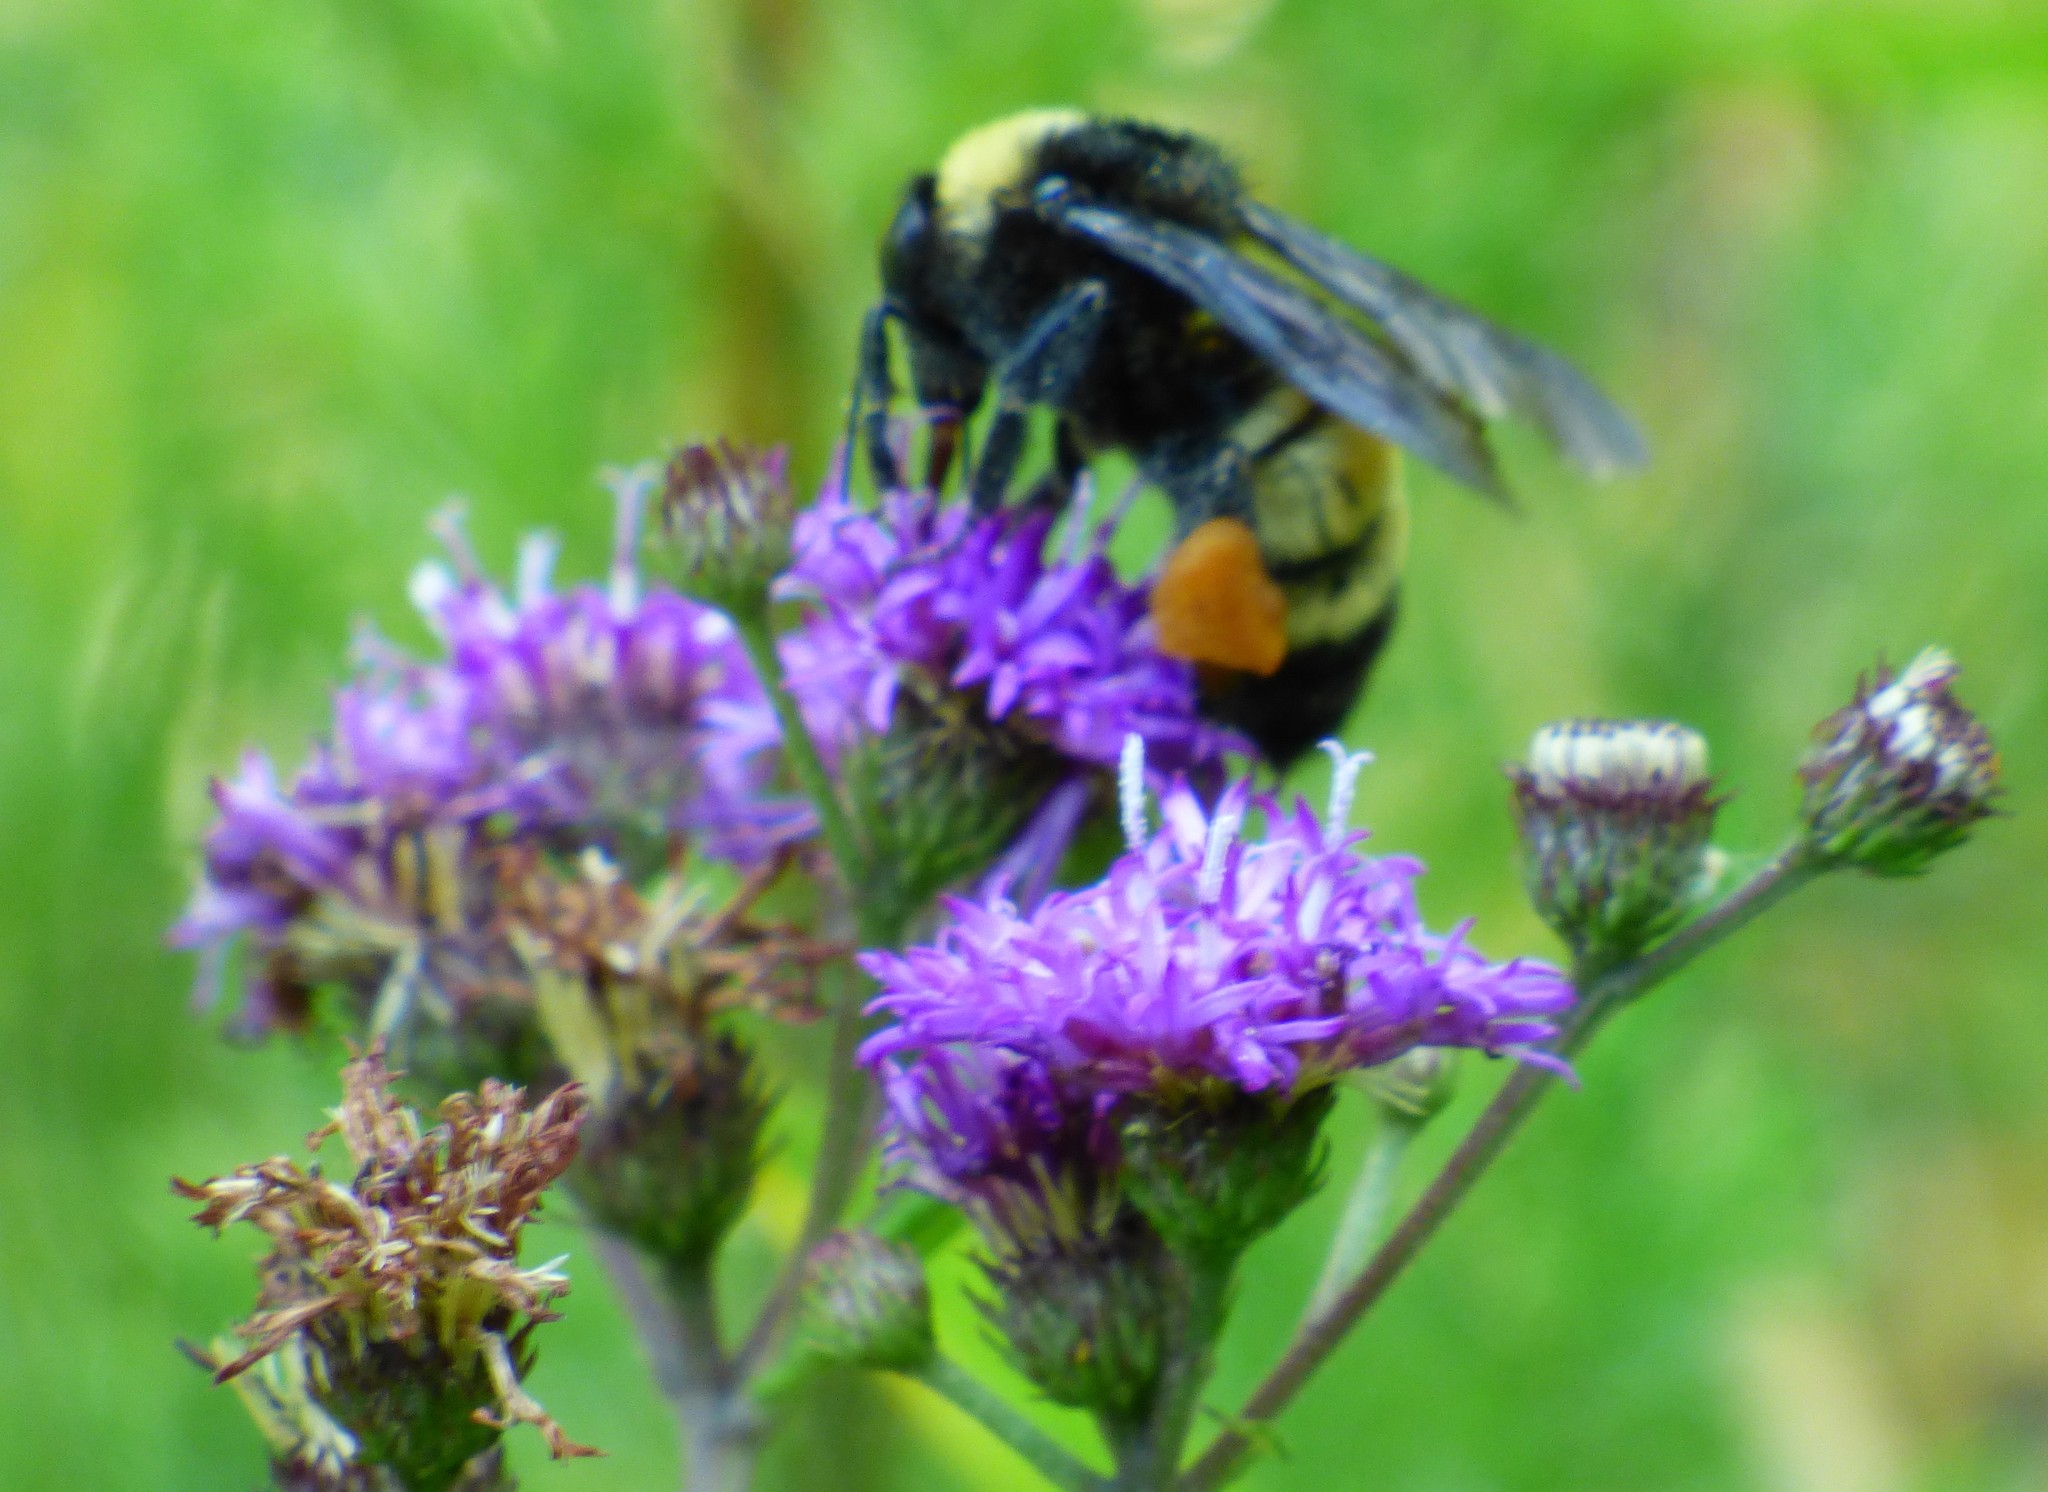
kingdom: Animalia
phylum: Arthropoda
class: Insecta
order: Hymenoptera
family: Apidae
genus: Bombus
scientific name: Bombus pensylvanicus
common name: Bumble bee
